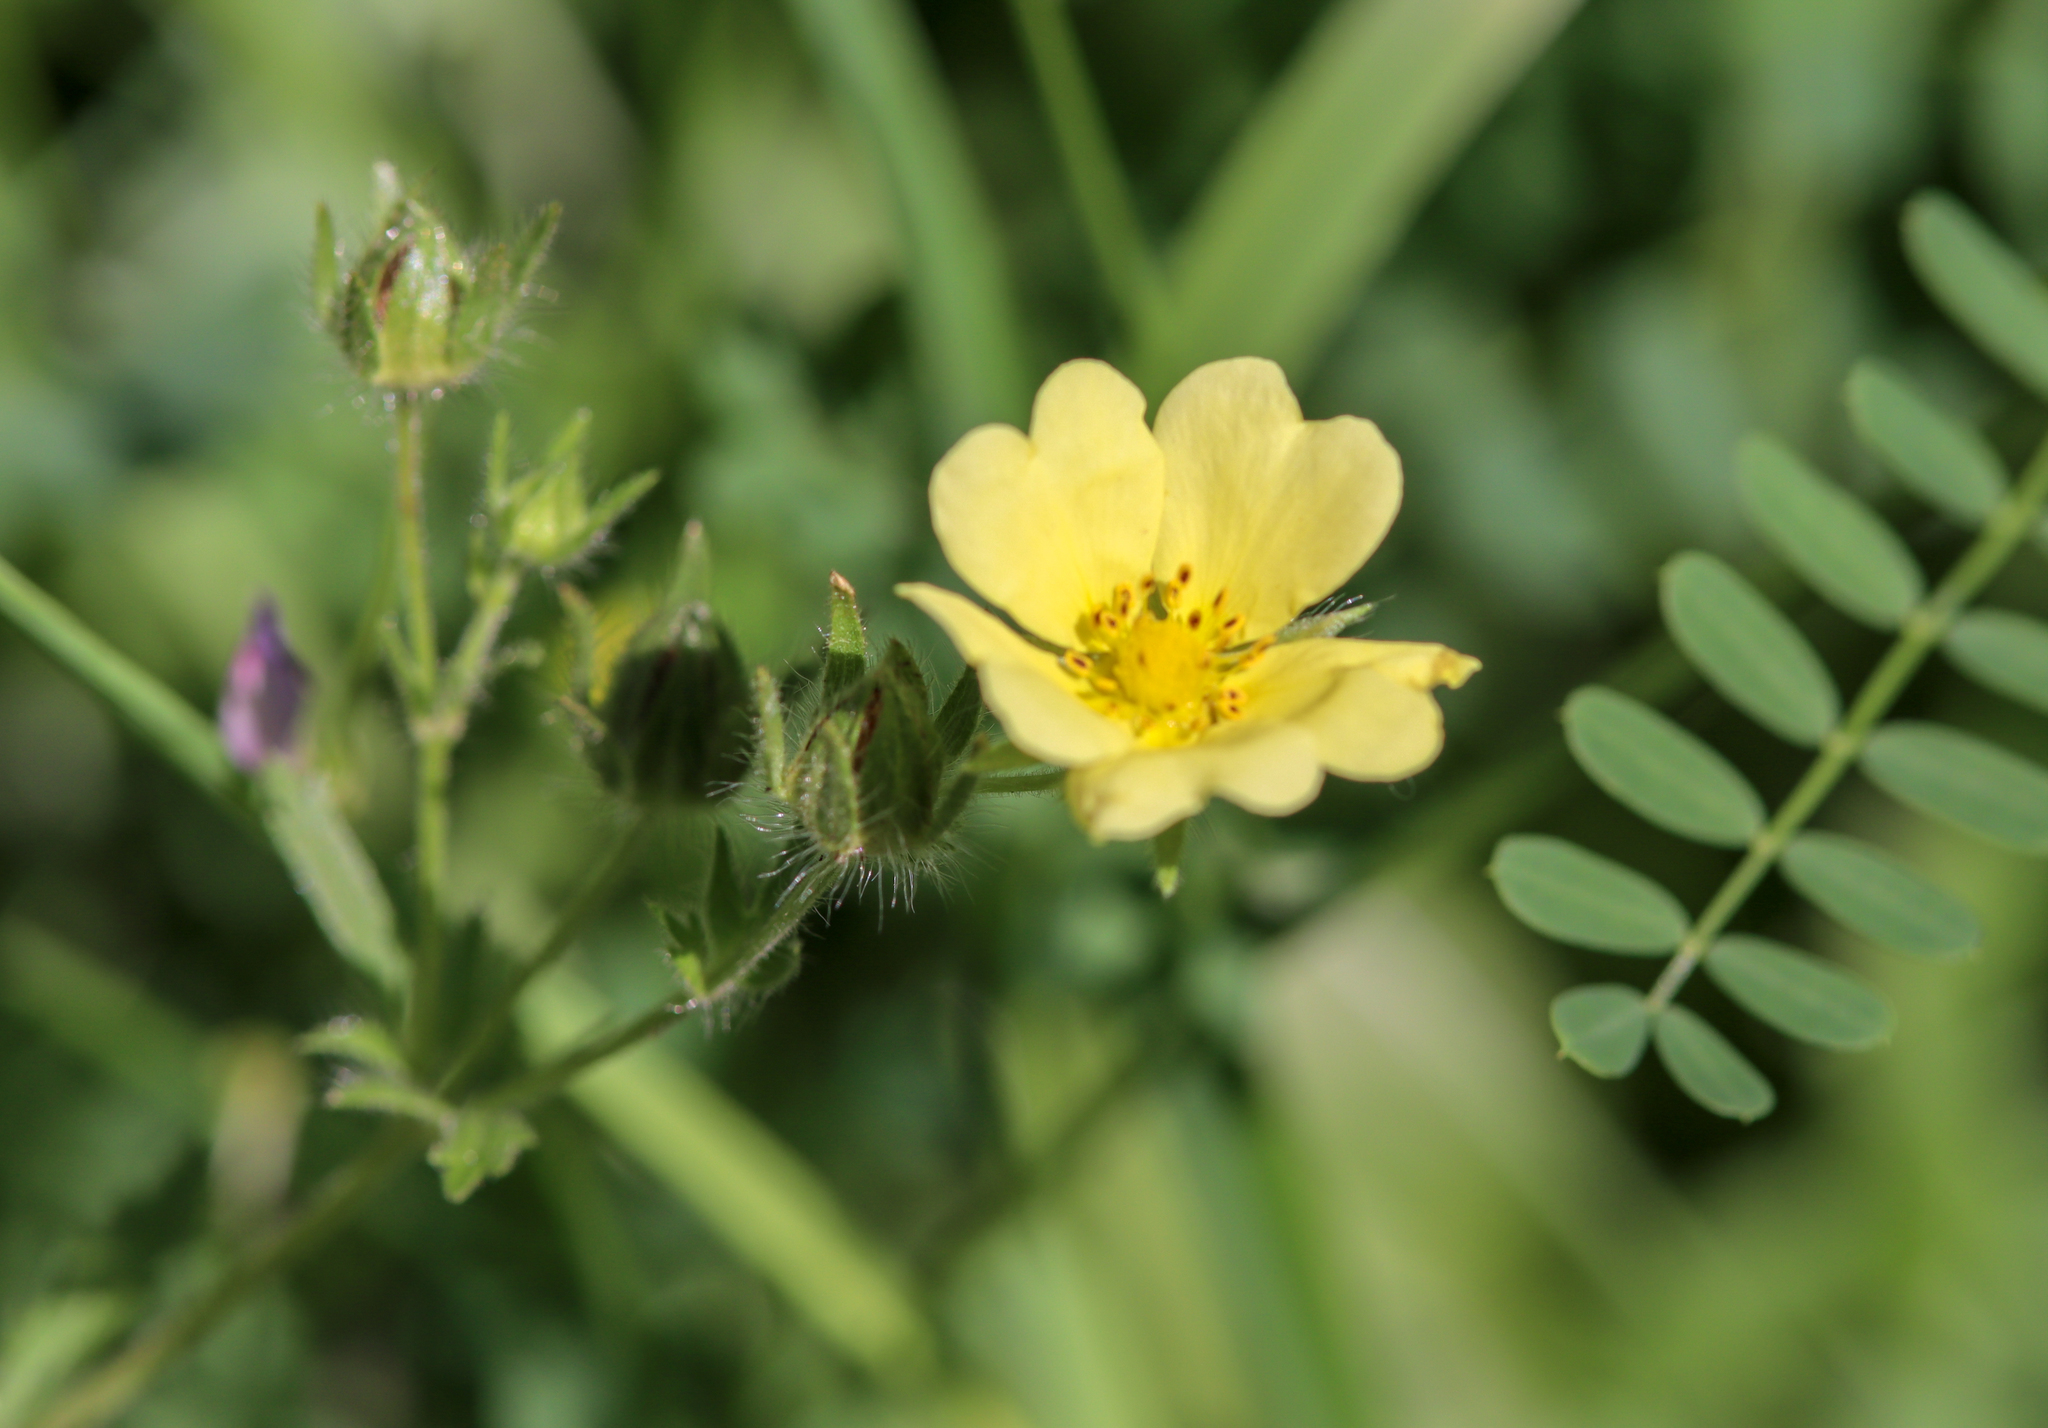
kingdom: Plantae
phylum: Tracheophyta
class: Magnoliopsida
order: Rosales
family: Rosaceae
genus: Potentilla
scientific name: Potentilla recta
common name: Sulphur cinquefoil
